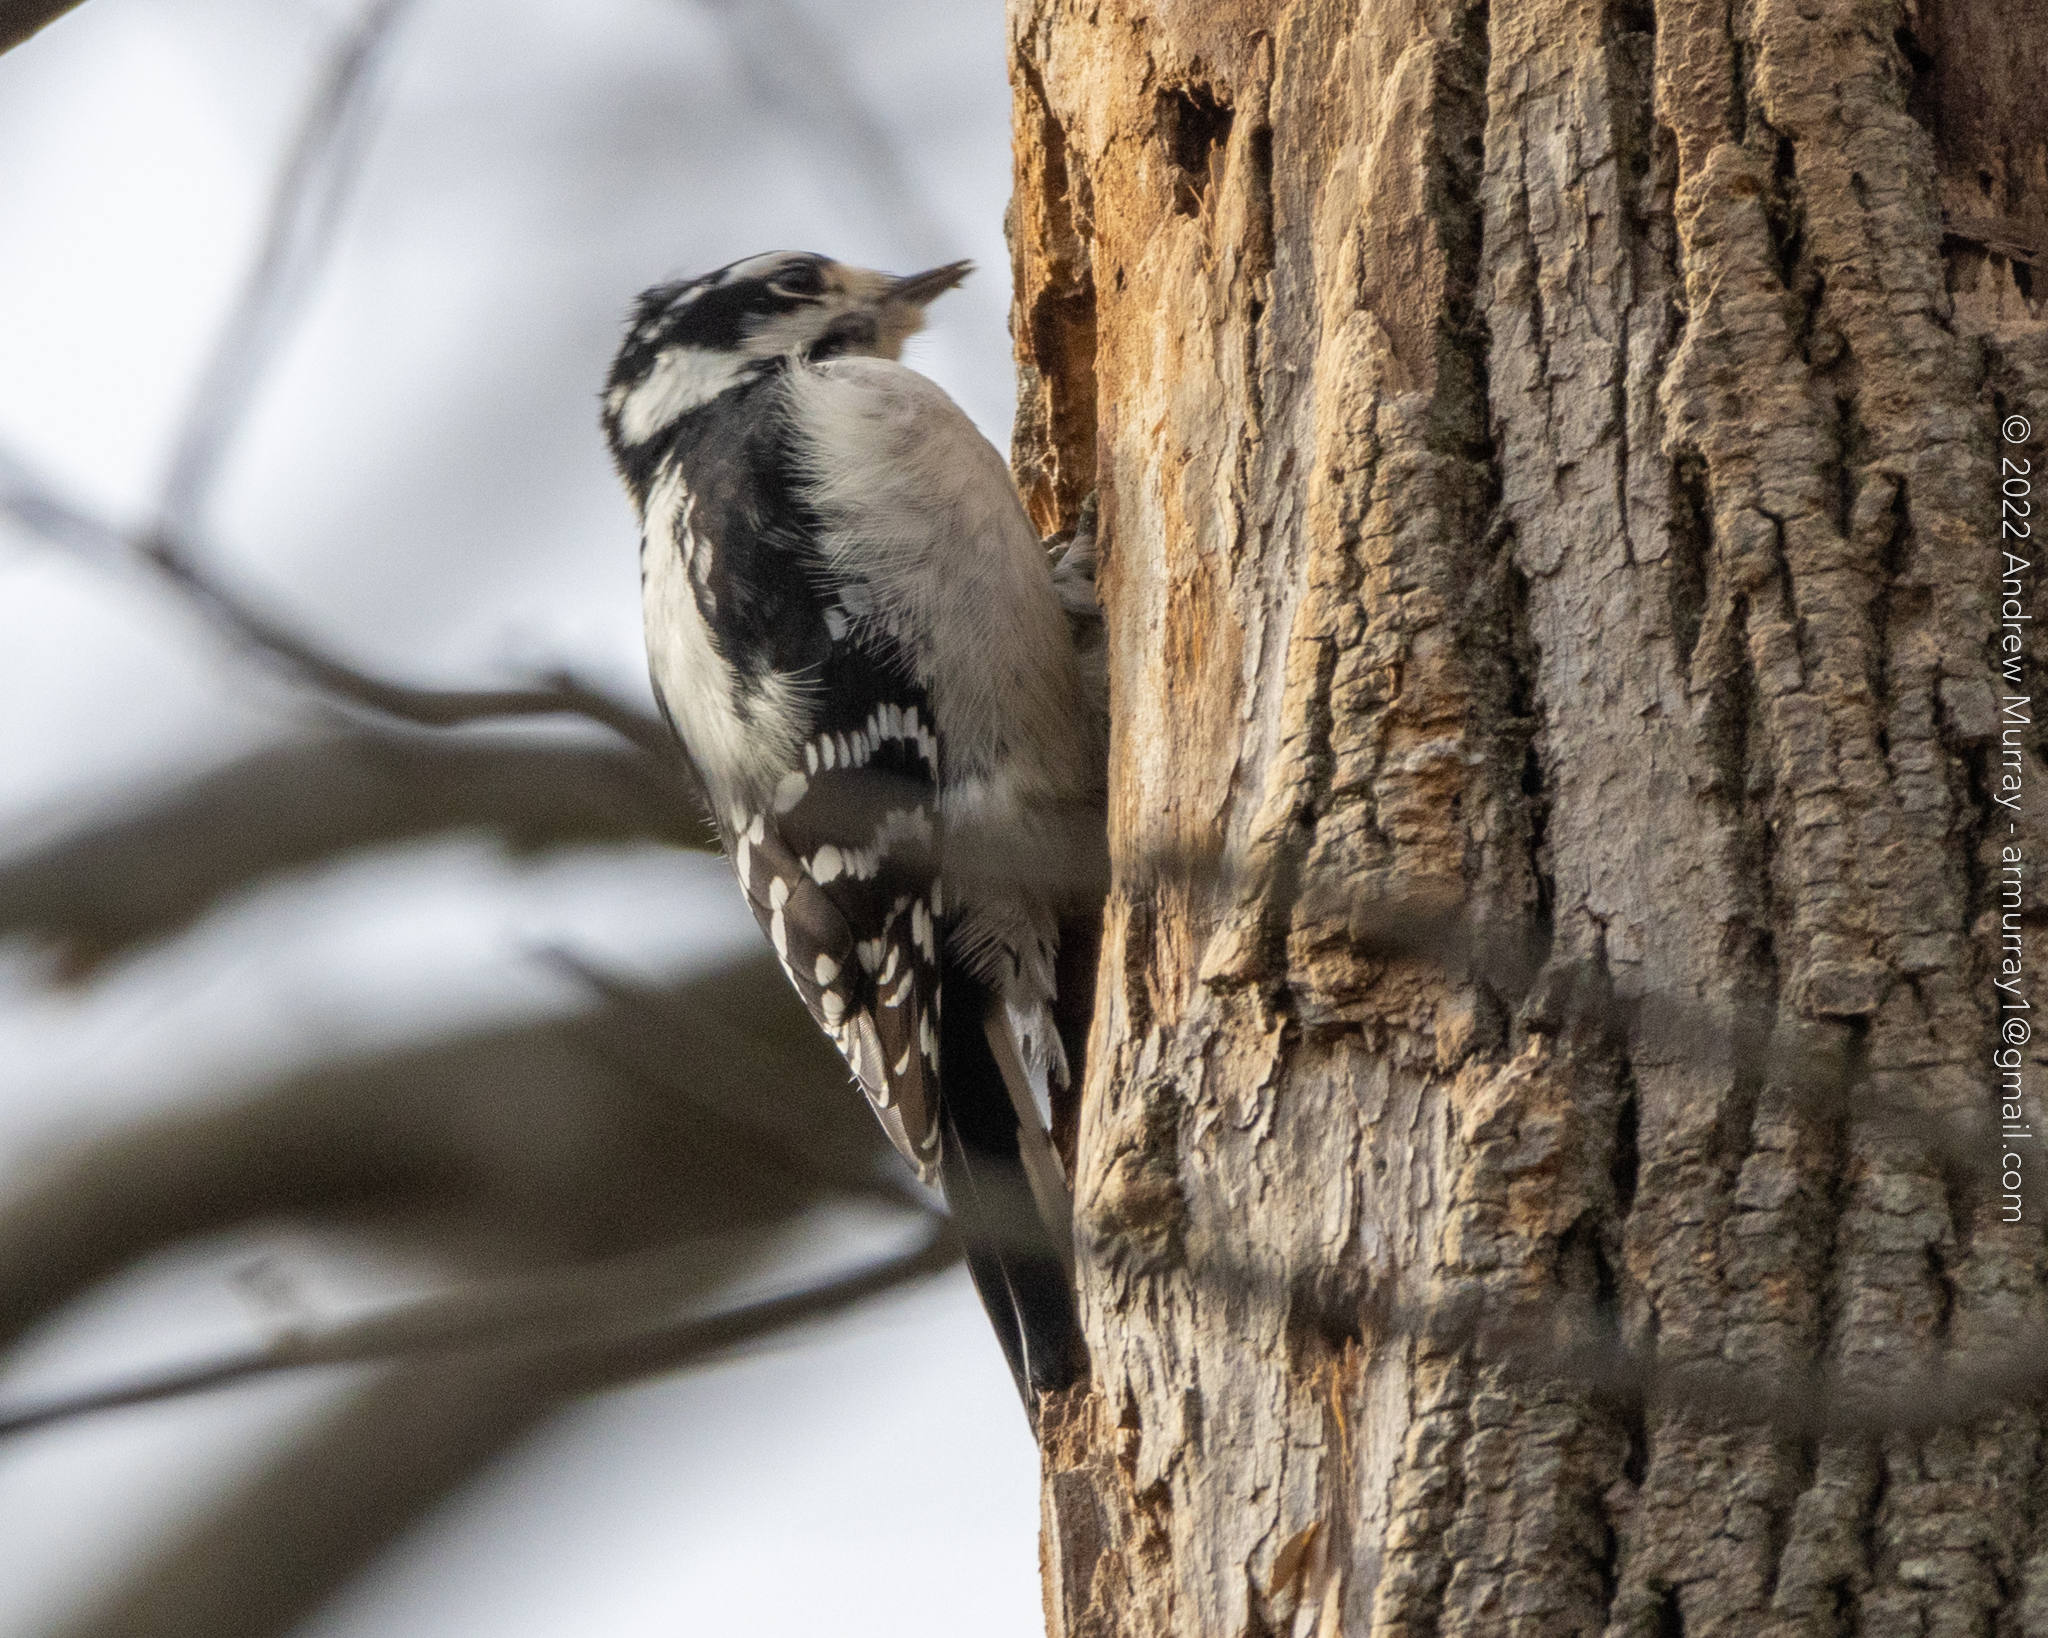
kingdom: Animalia
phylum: Chordata
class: Aves
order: Piciformes
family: Picidae
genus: Dryobates
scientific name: Dryobates pubescens
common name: Downy woodpecker
